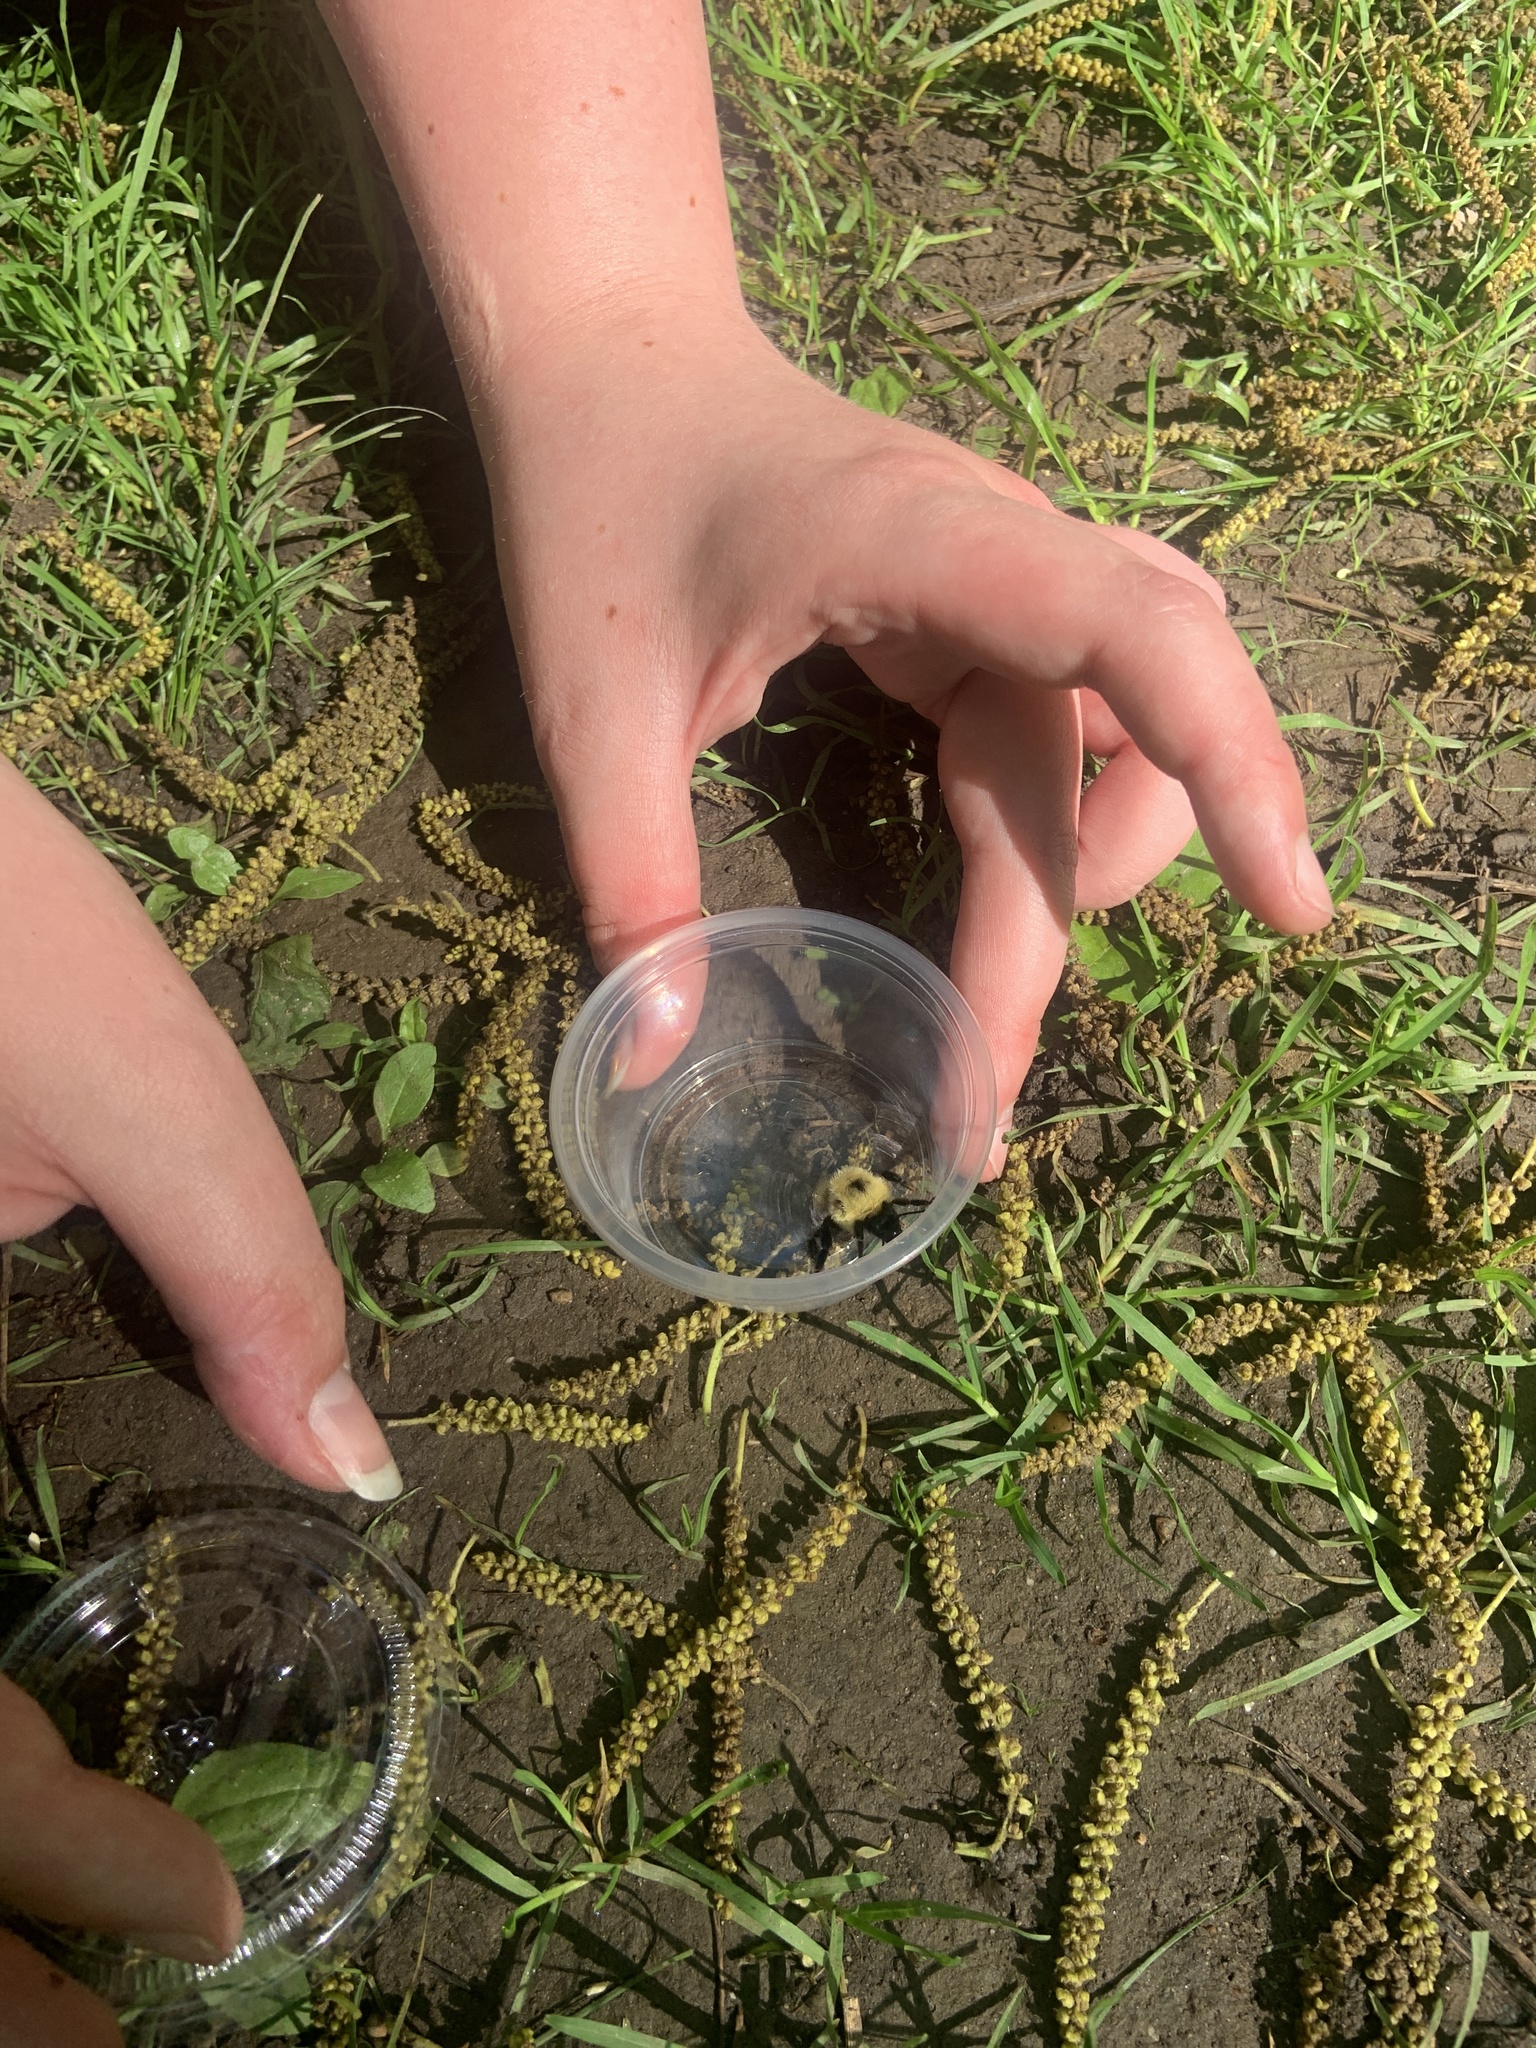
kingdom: Animalia
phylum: Arthropoda
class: Insecta
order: Hymenoptera
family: Apidae
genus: Bombus
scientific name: Bombus bimaculatus
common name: Two-spotted bumble bee
